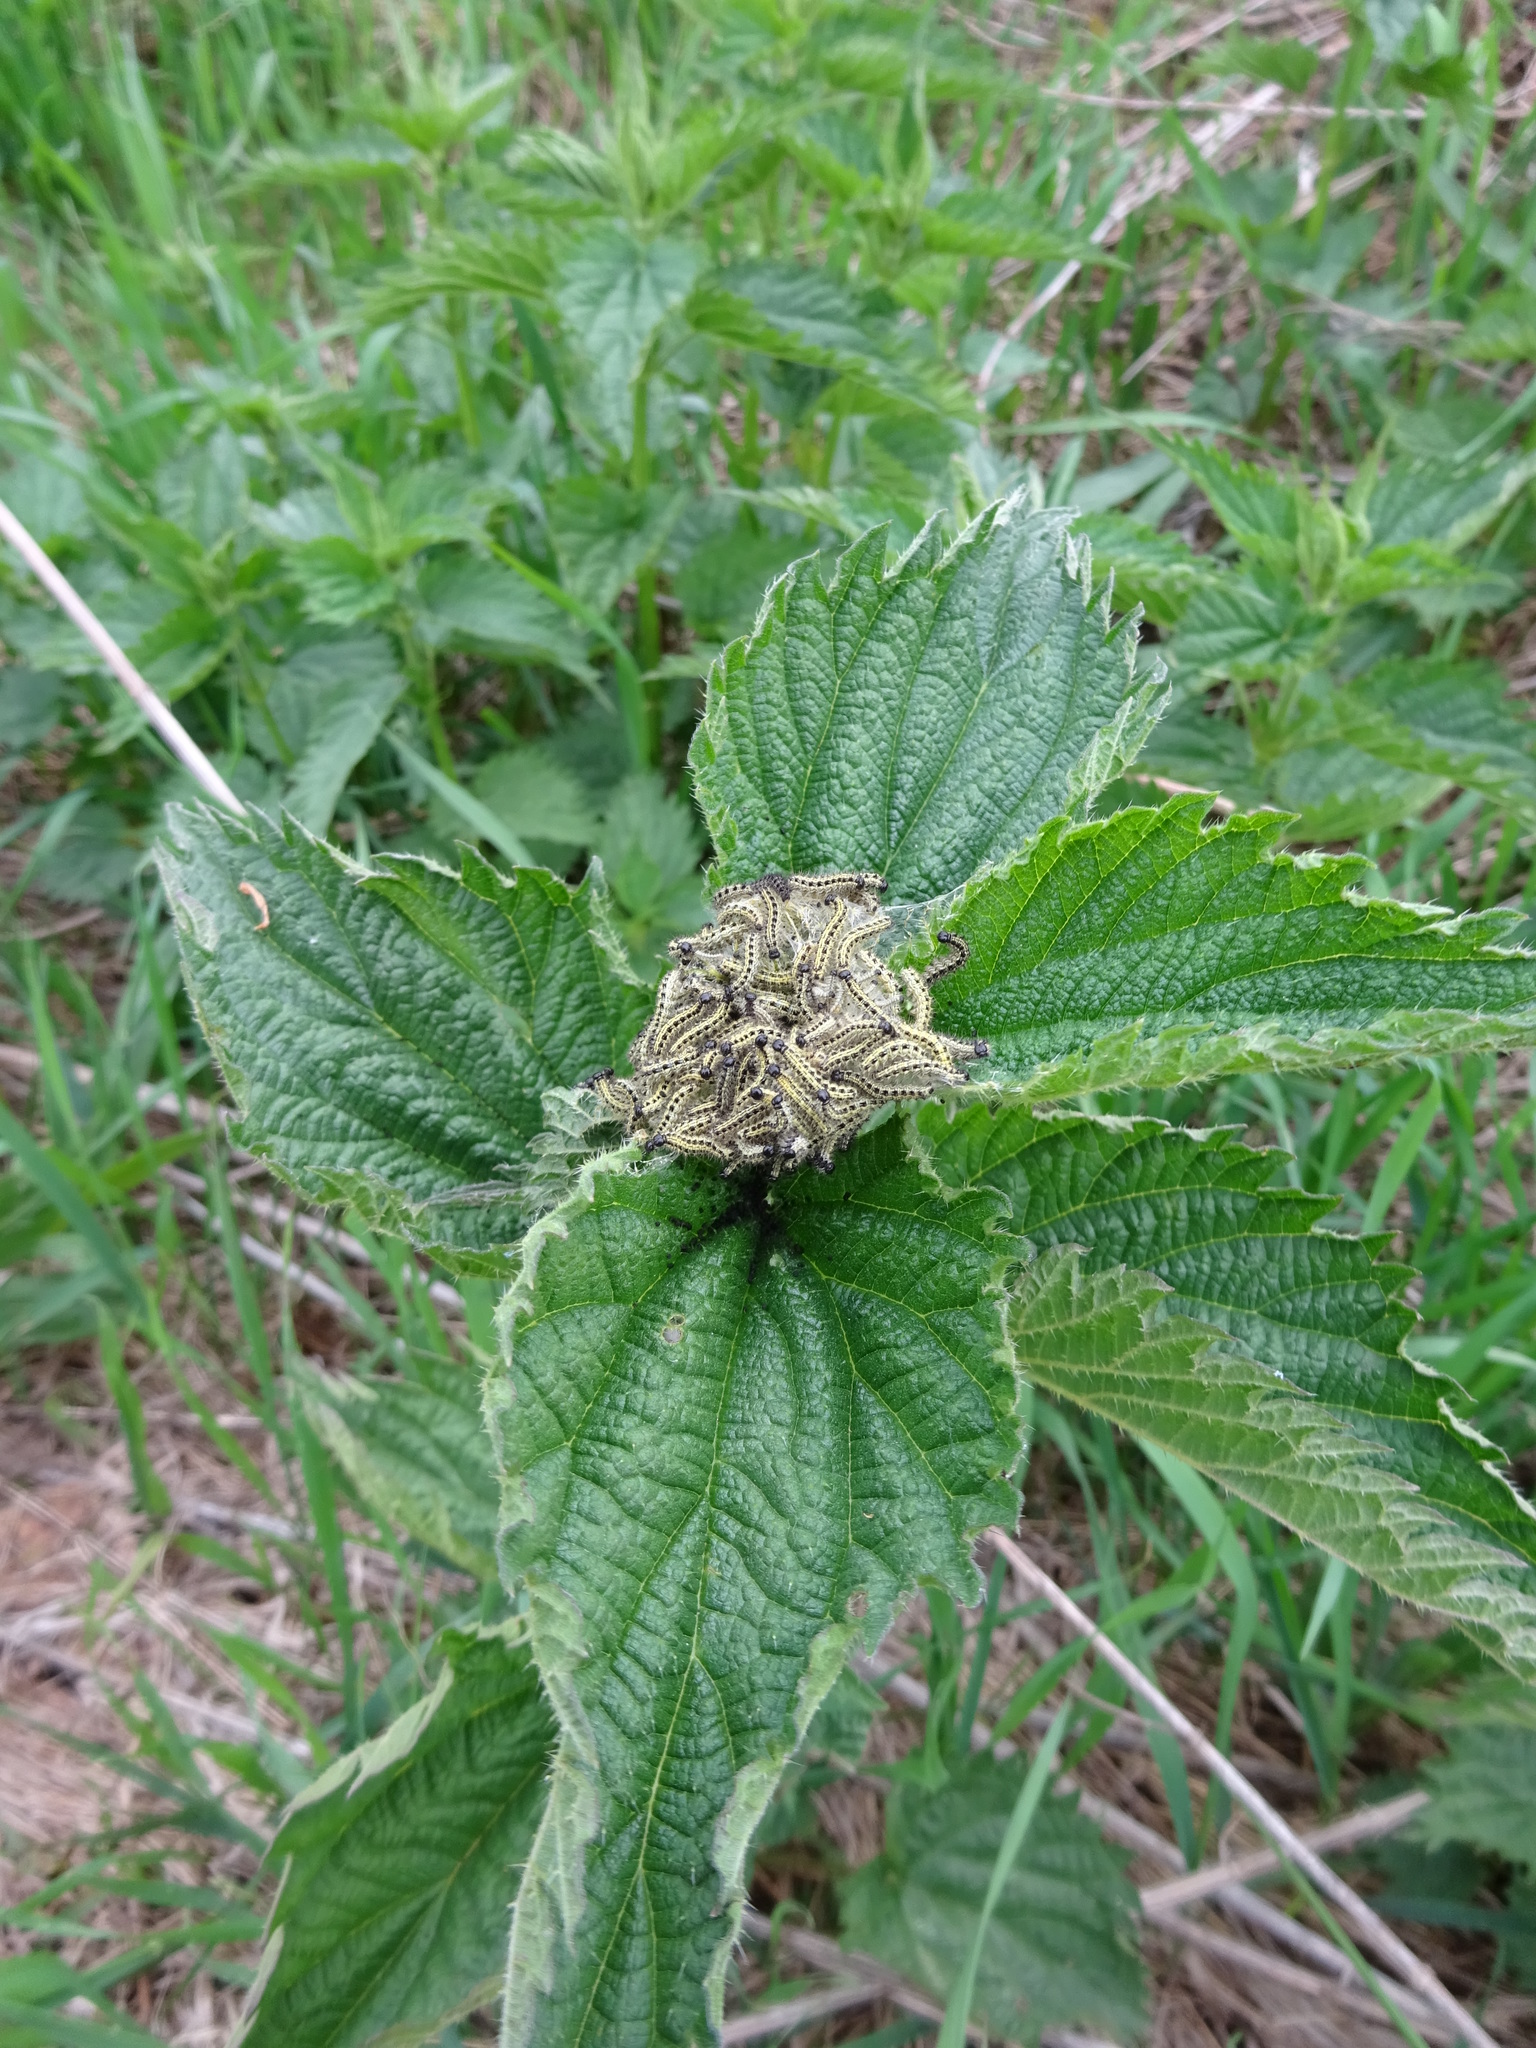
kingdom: Animalia
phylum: Arthropoda
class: Insecta
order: Lepidoptera
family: Nymphalidae
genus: Aglais
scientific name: Aglais urticae
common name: Small tortoiseshell
